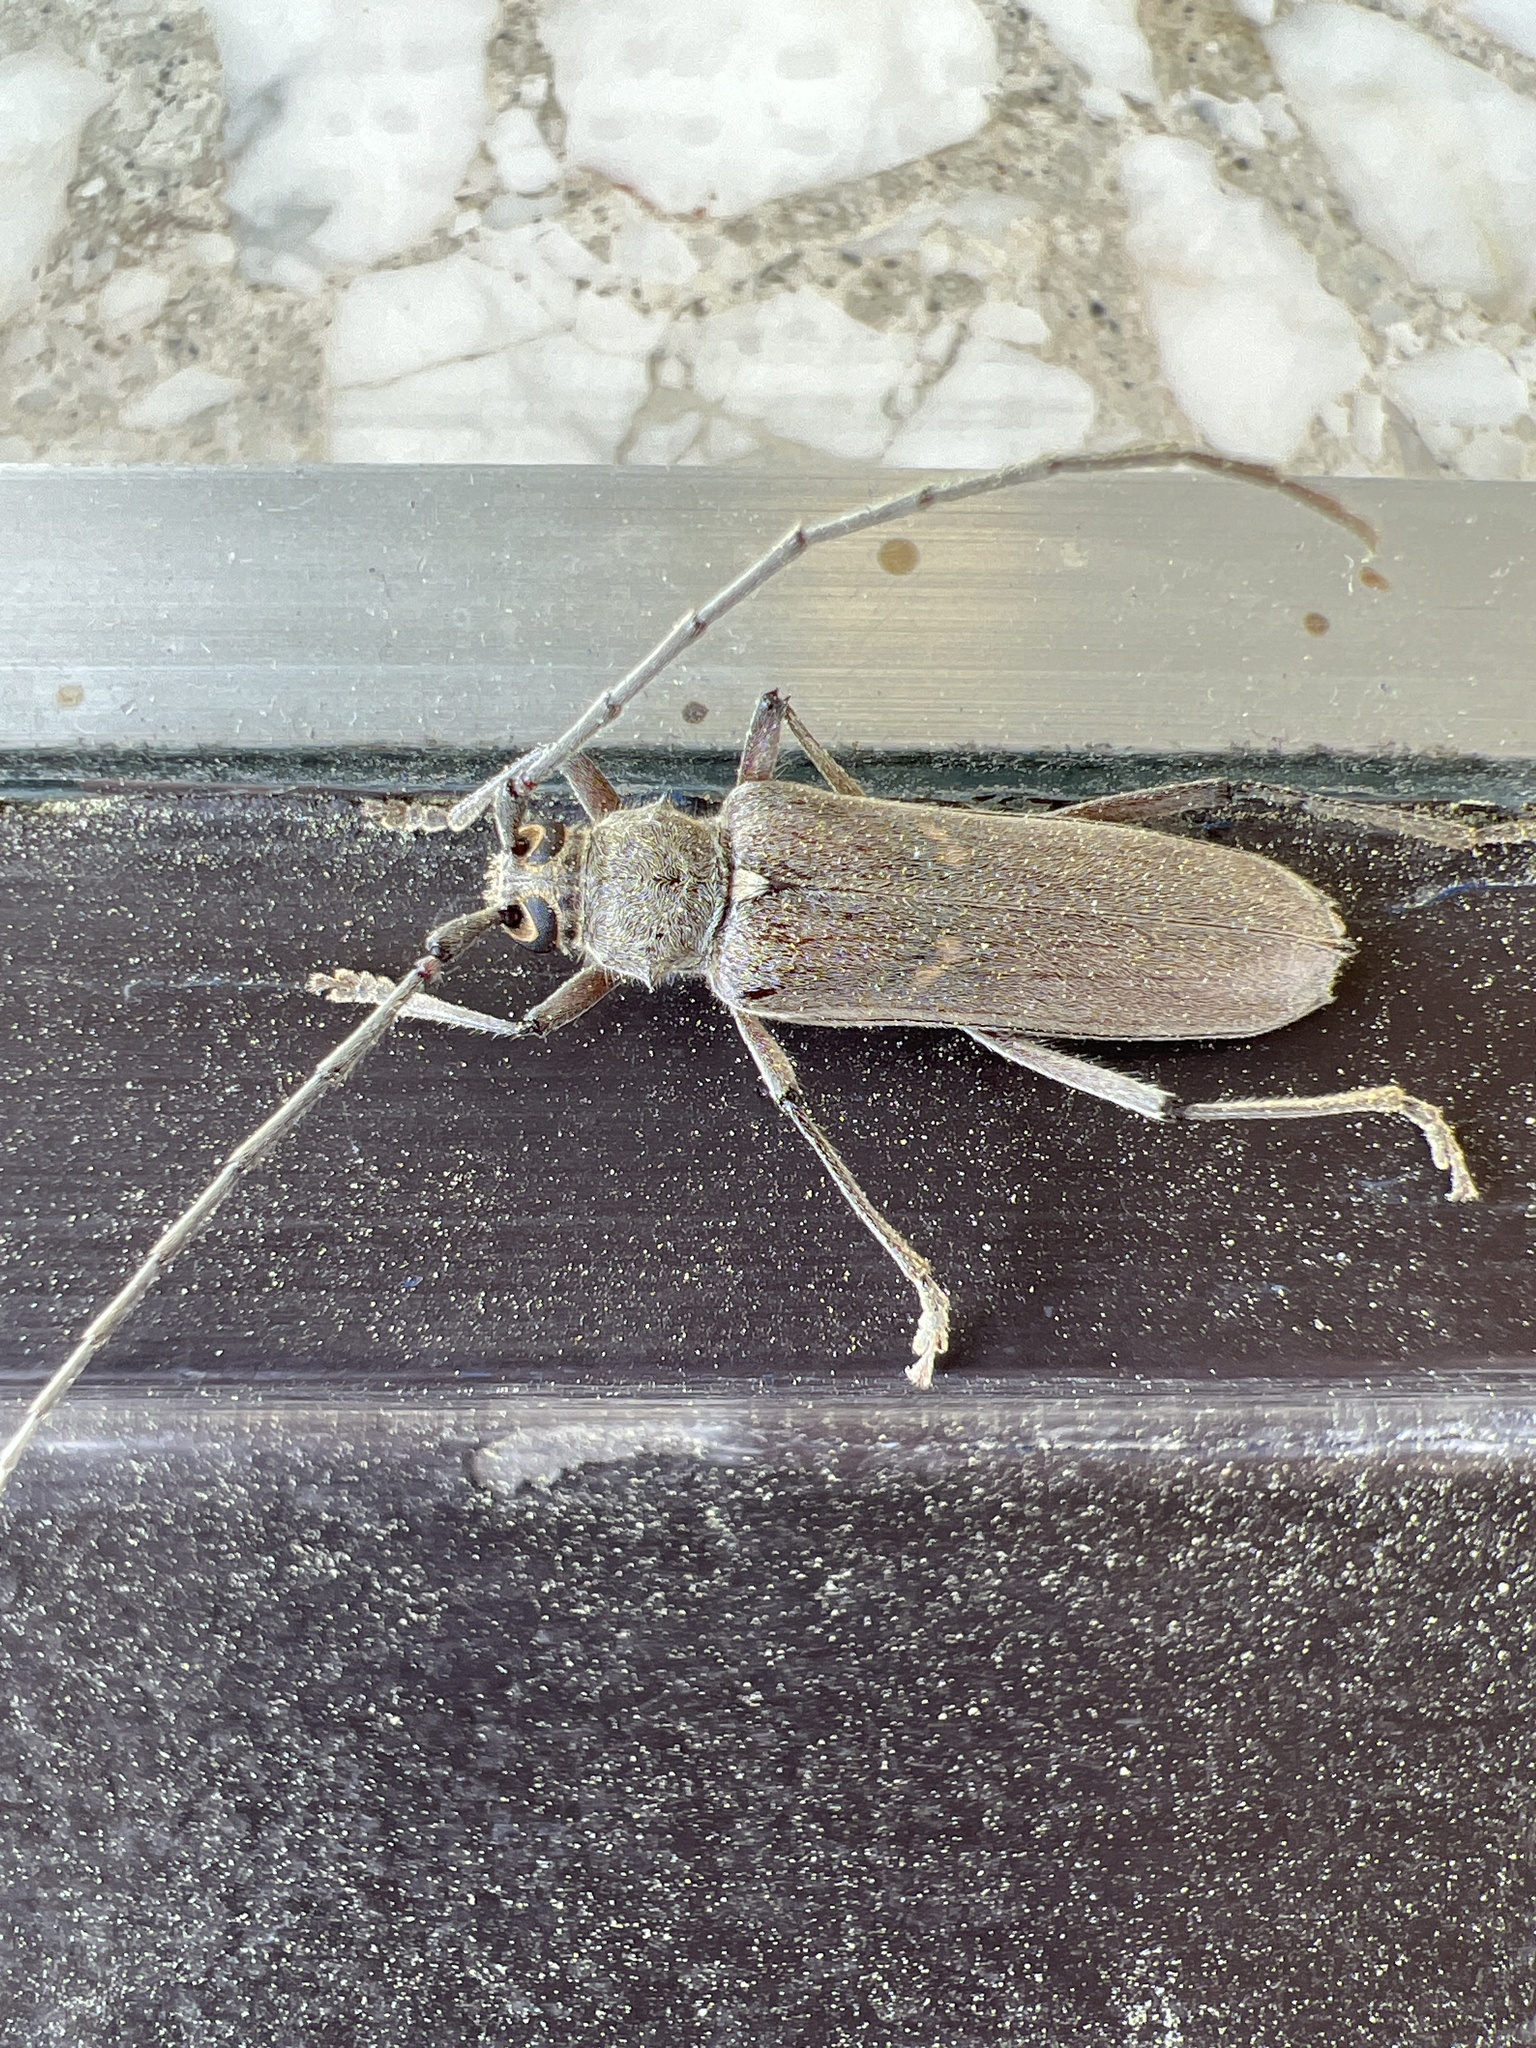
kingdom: Animalia
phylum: Arthropoda
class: Insecta
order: Coleoptera
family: Cerambycidae
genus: Knulliana
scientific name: Knulliana cincta
